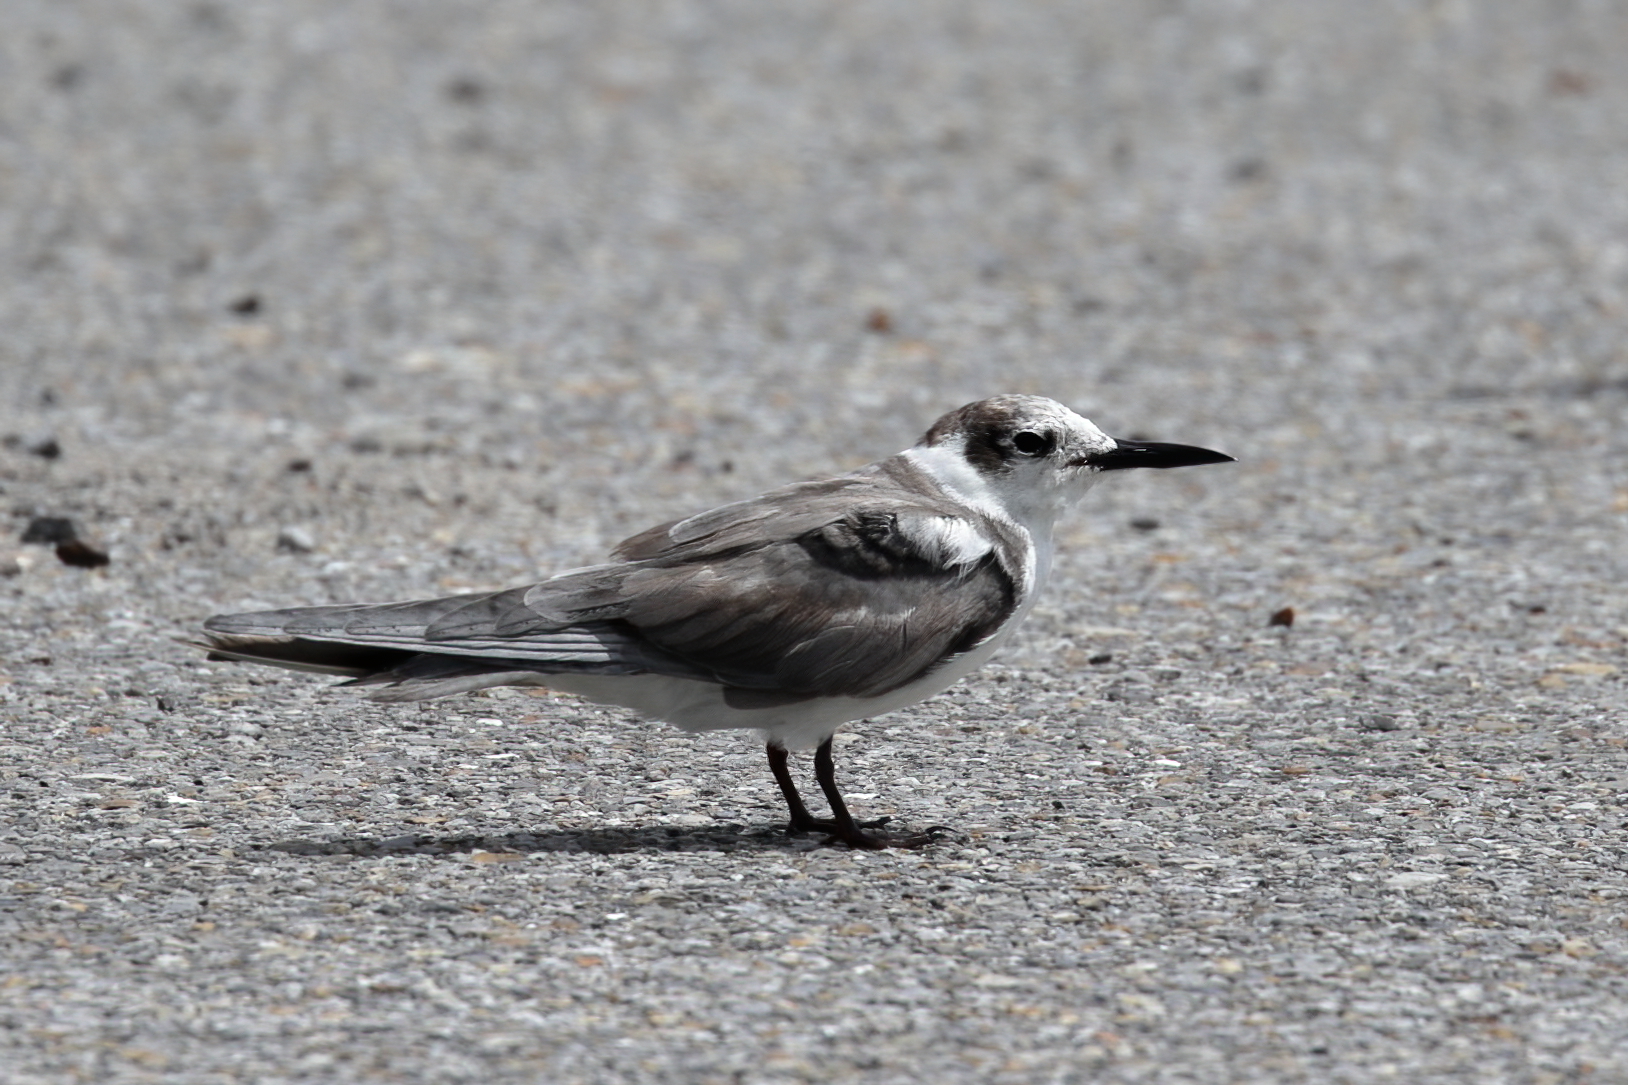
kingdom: Animalia
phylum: Chordata
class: Aves
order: Charadriiformes
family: Laridae
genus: Chlidonias
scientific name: Chlidonias niger
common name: Black tern
